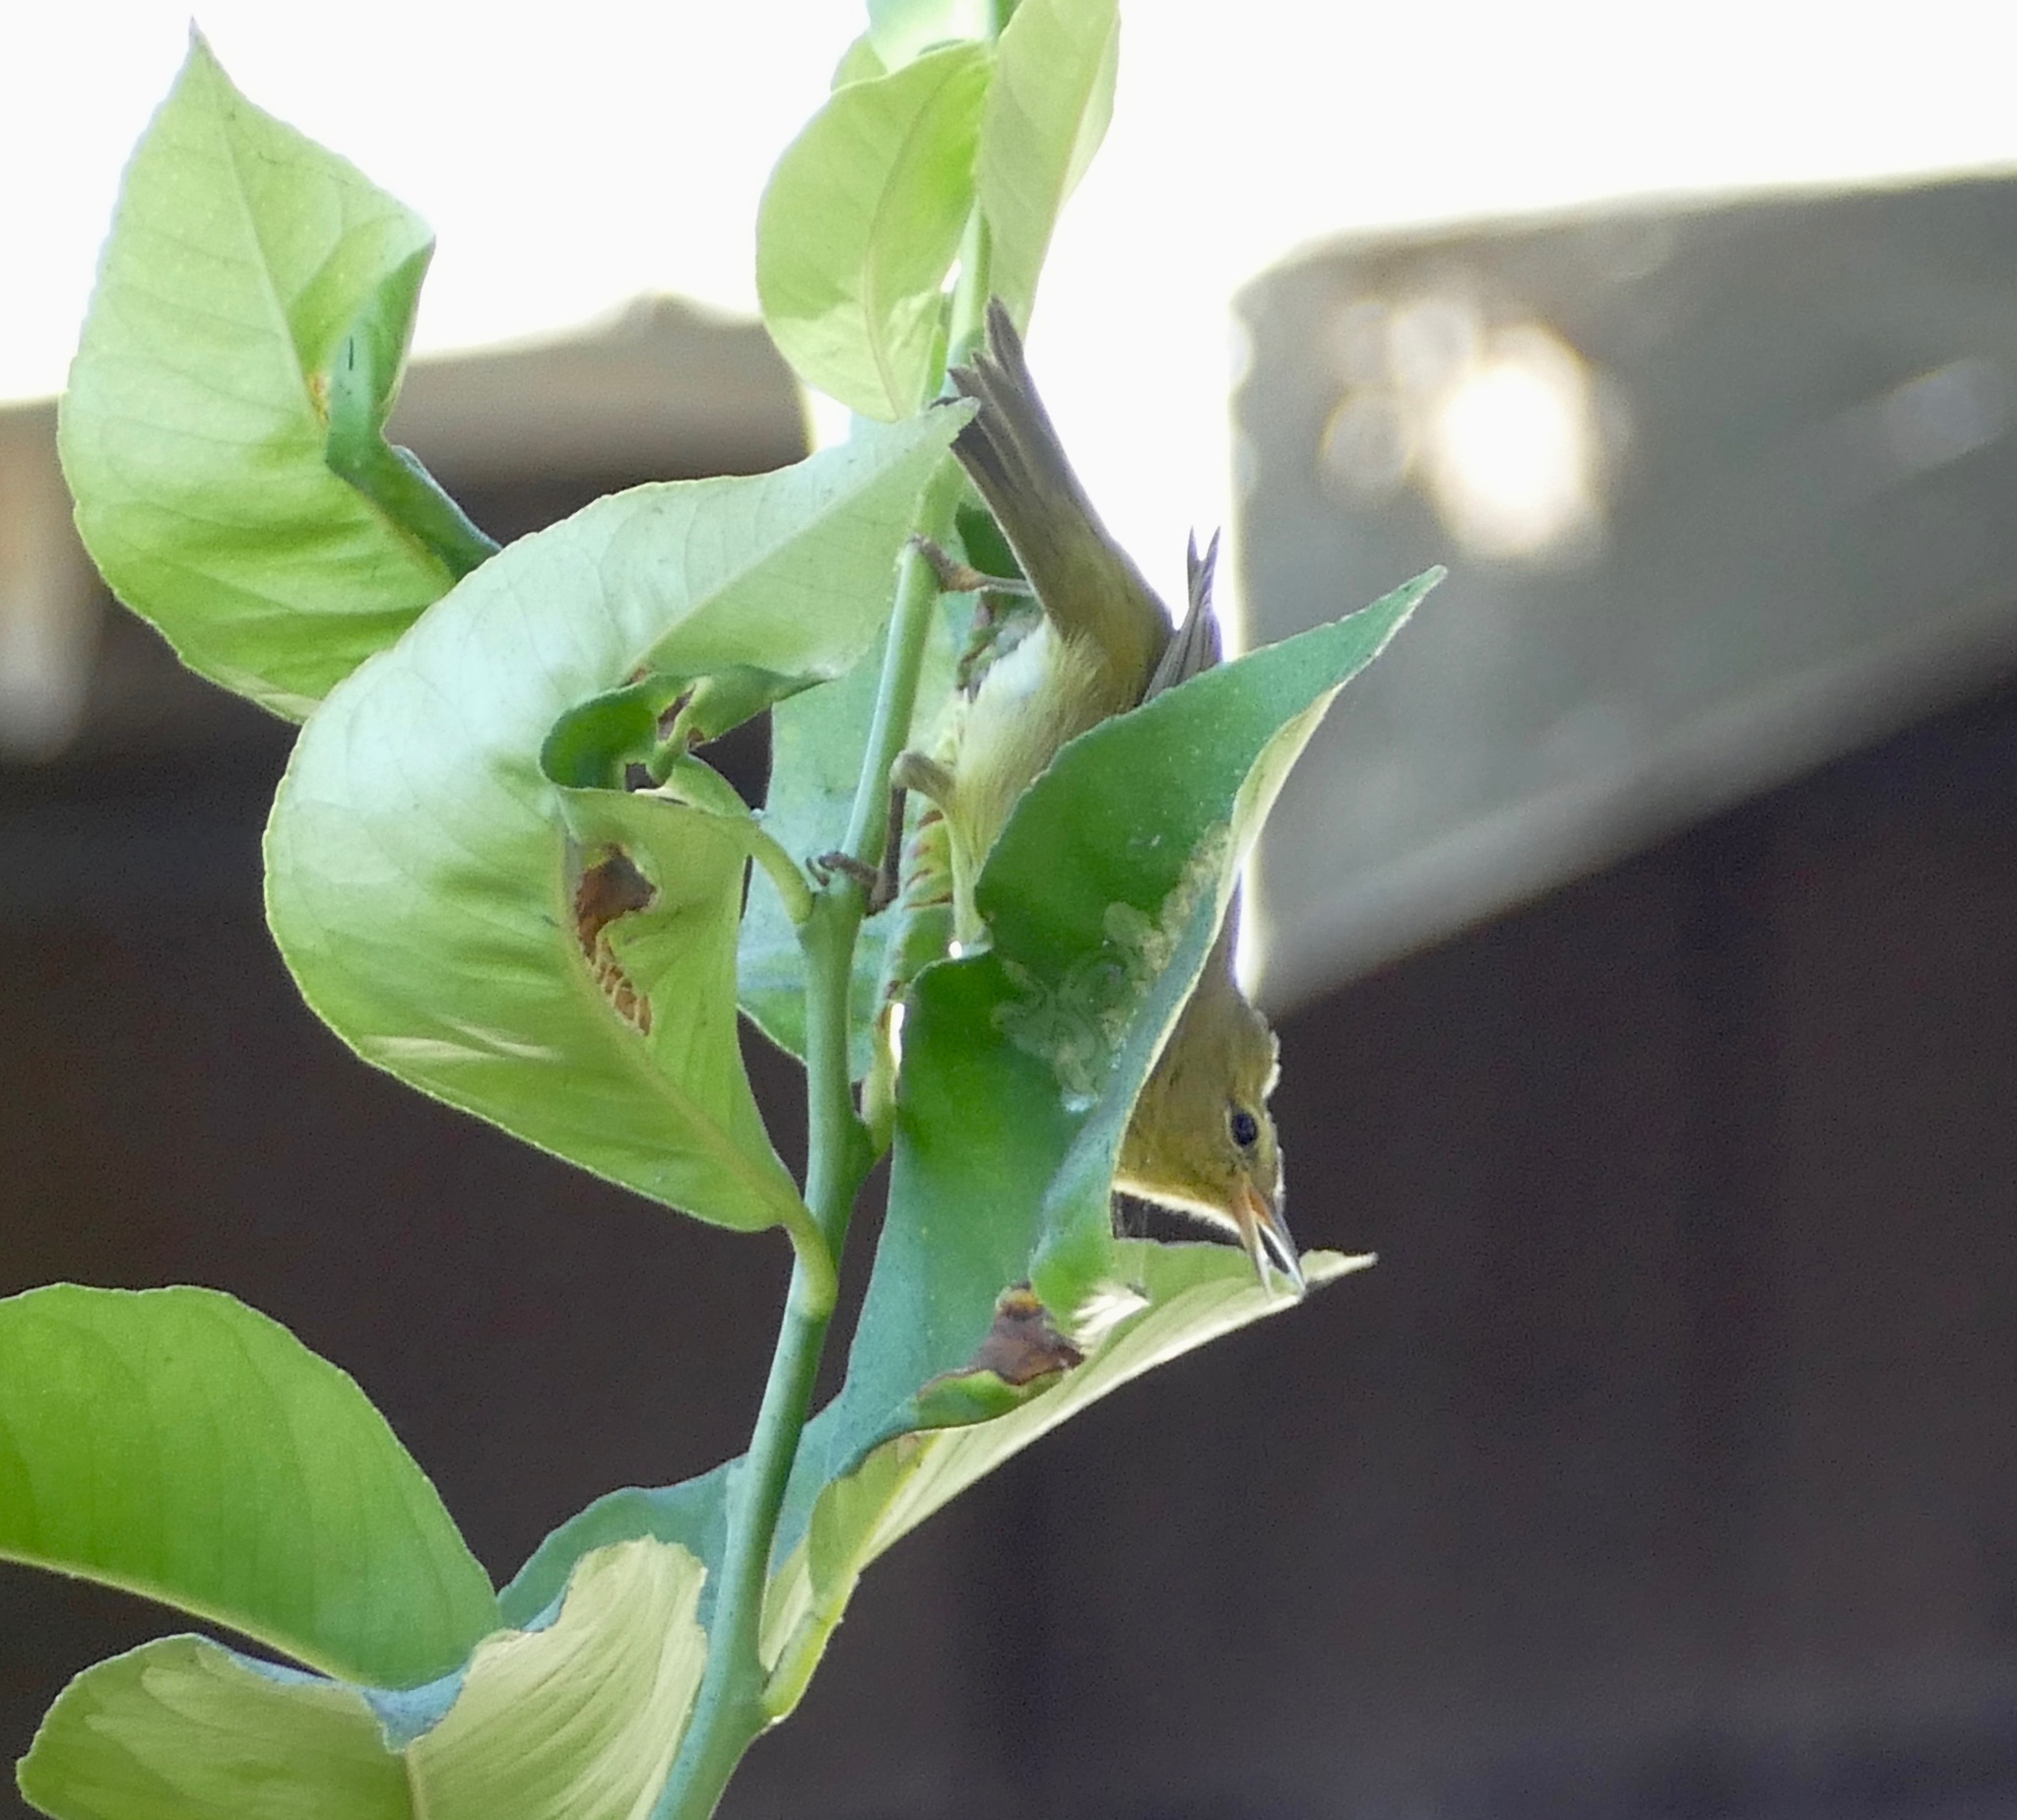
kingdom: Animalia
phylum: Chordata
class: Aves
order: Passeriformes
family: Parulidae
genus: Leiothlypis
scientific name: Leiothlypis celata
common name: Orange-crowned warbler
